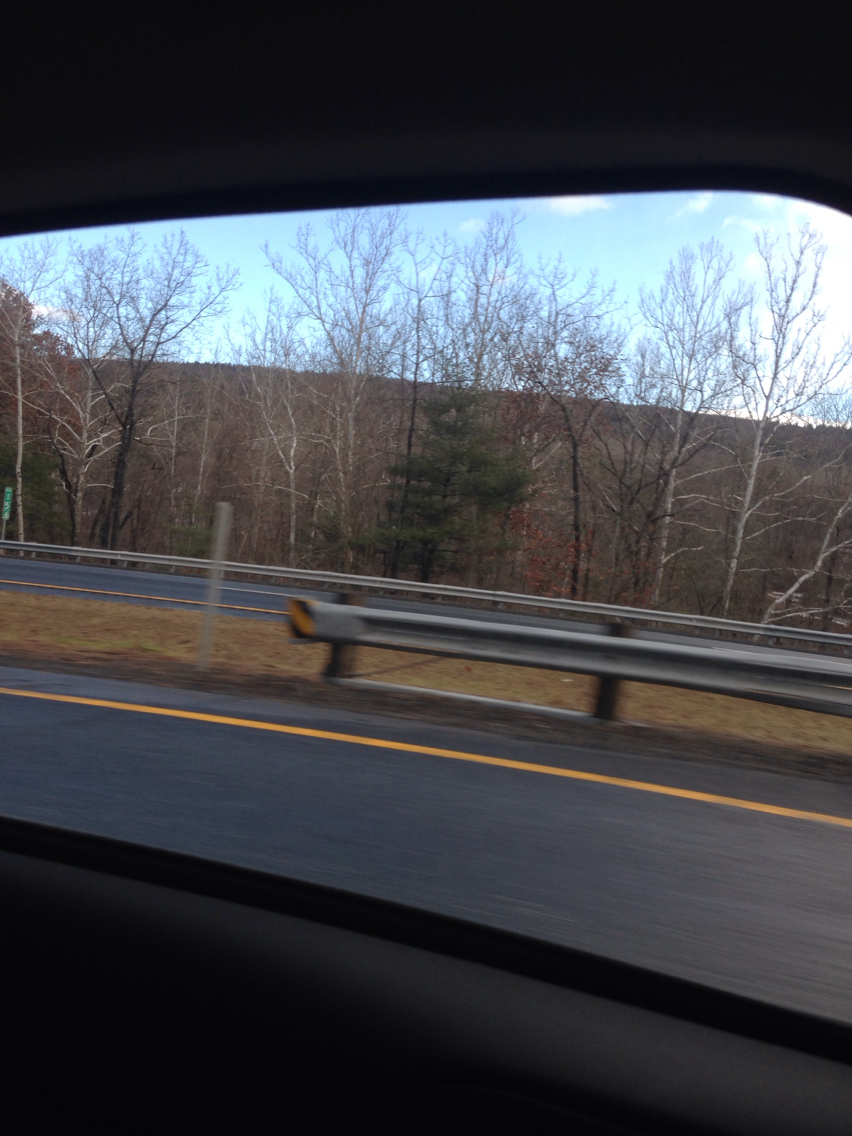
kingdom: Plantae
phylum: Tracheophyta
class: Magnoliopsida
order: Proteales
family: Platanaceae
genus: Platanus
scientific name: Platanus occidentalis
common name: American sycamore
